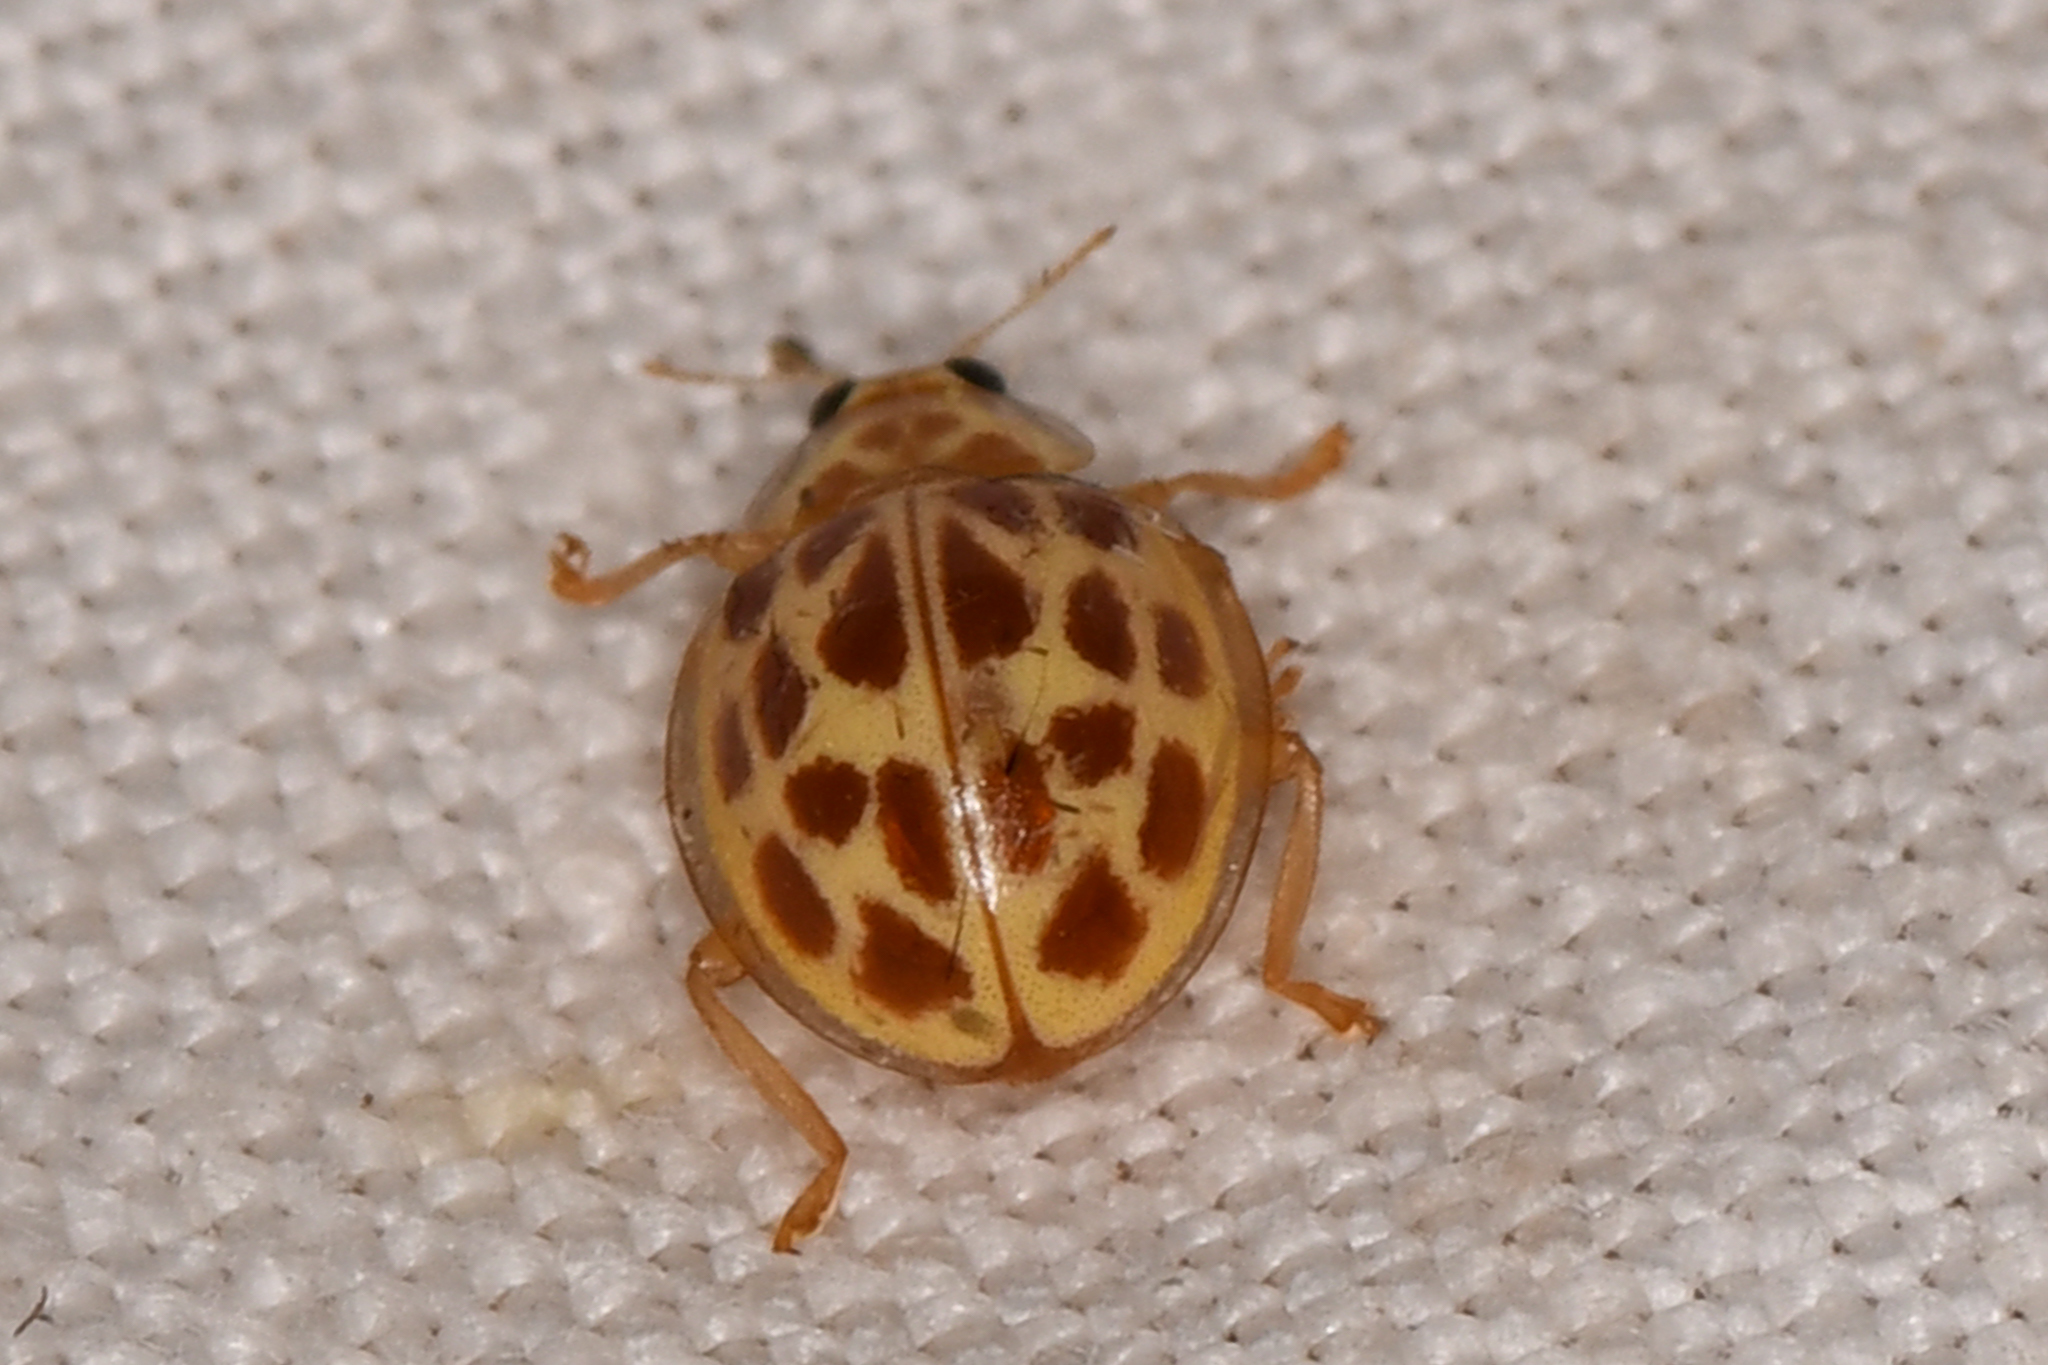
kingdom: Animalia
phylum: Arthropoda
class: Insecta
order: Coleoptera
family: Coccinellidae
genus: Psyllobora
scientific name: Psyllobora
